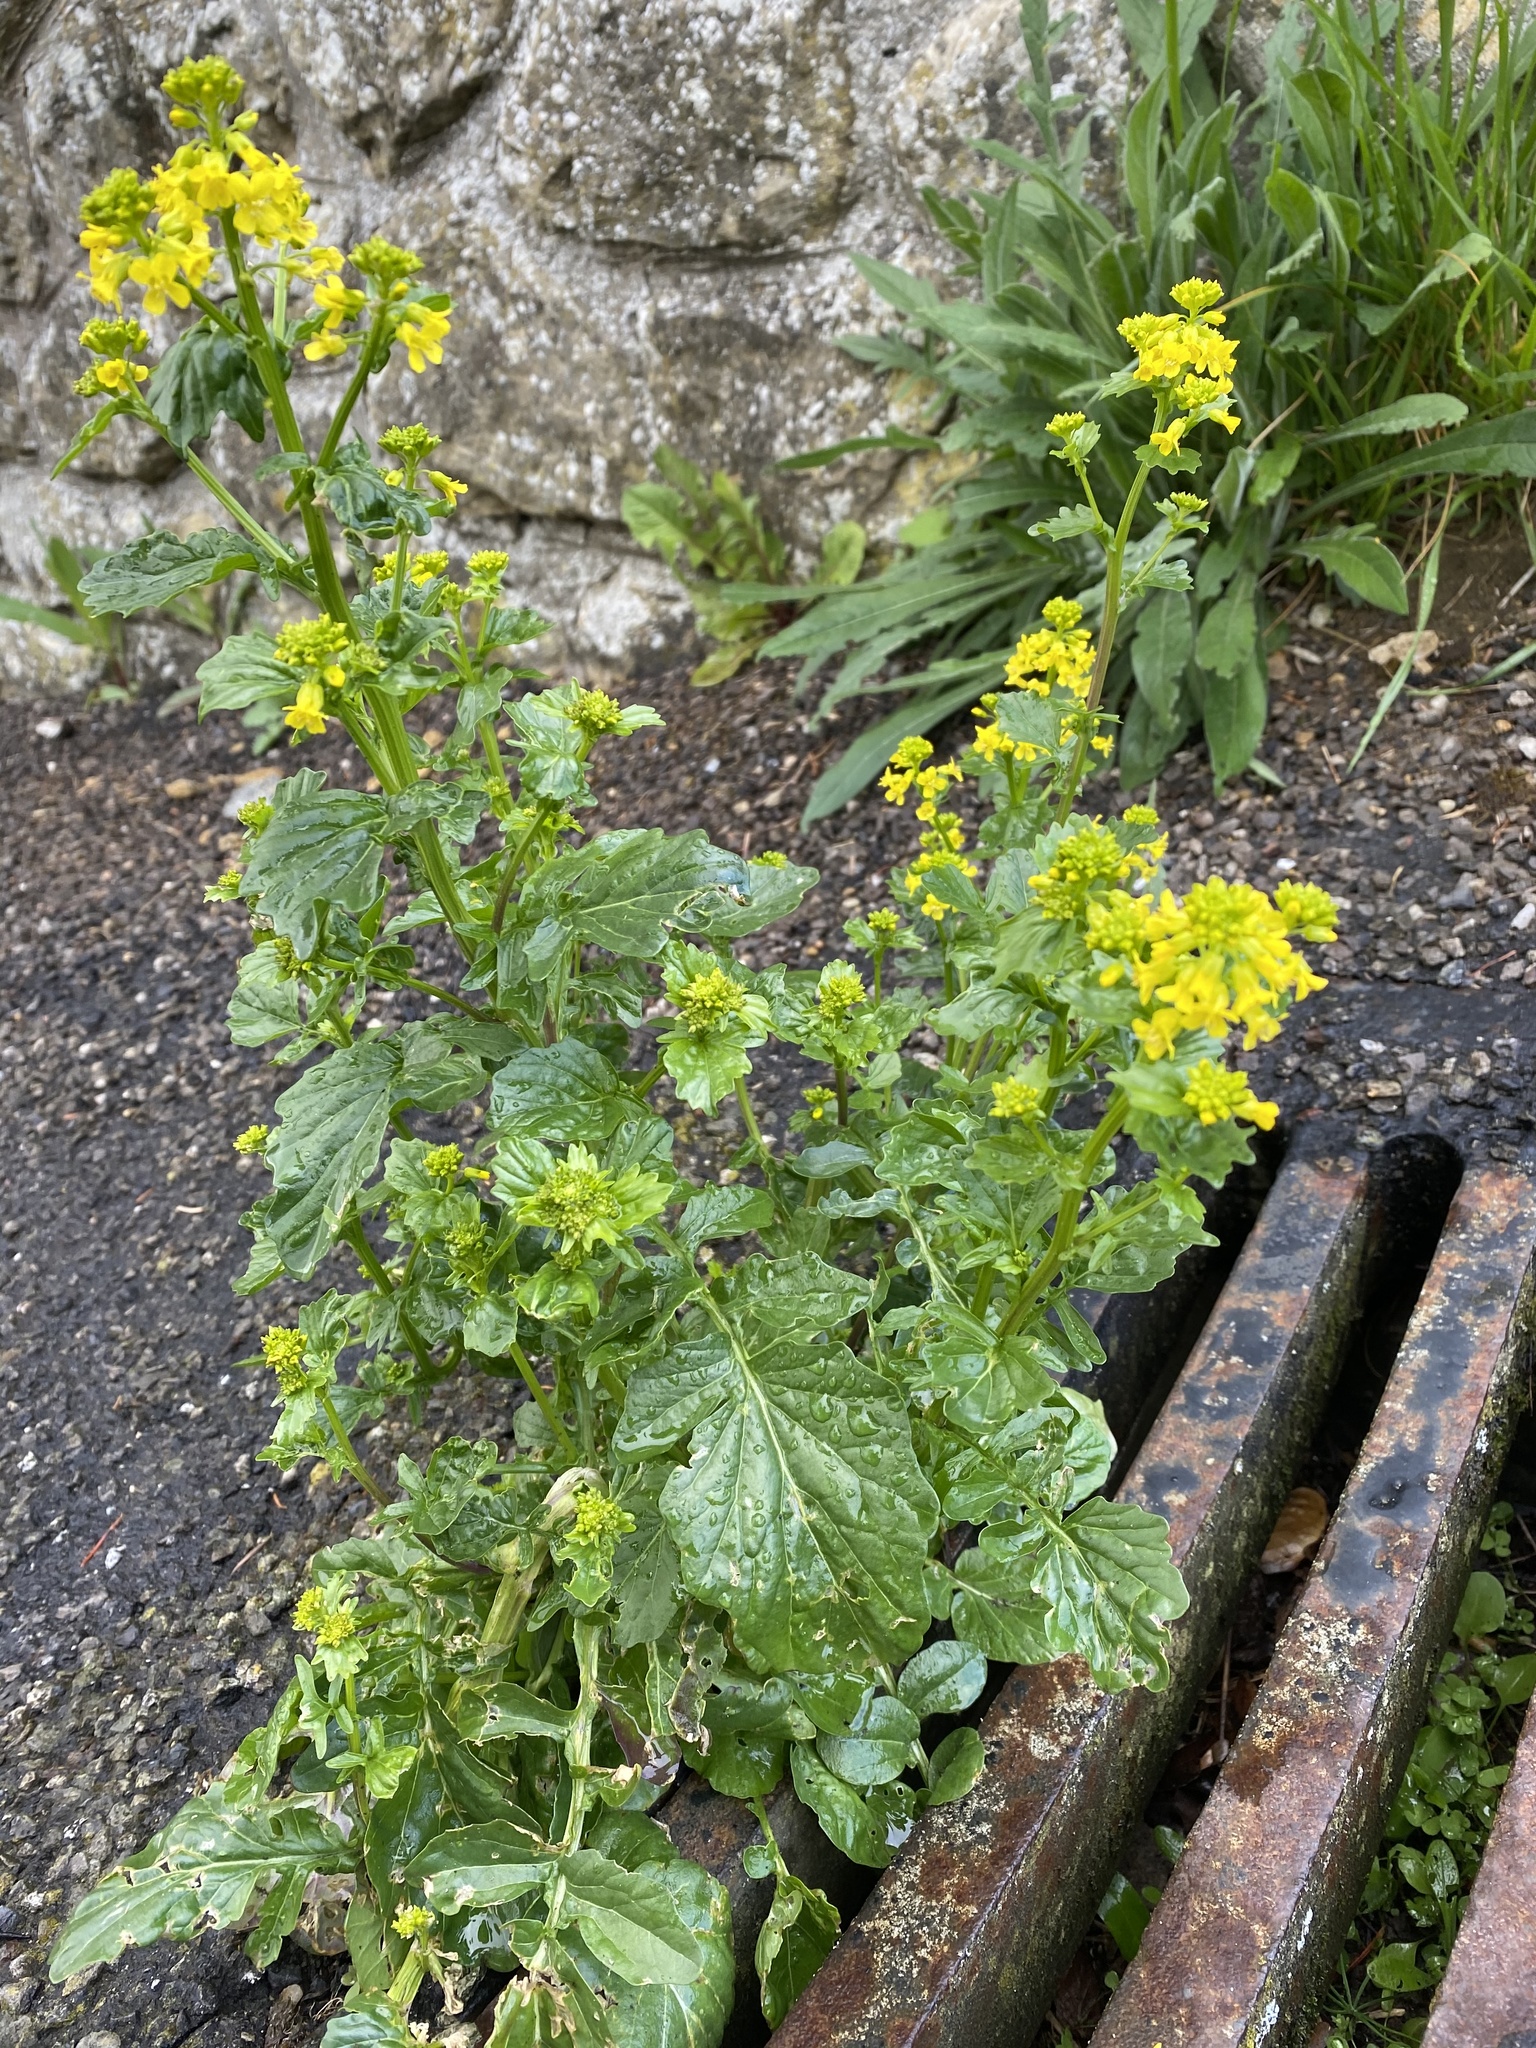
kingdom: Plantae
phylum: Tracheophyta
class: Magnoliopsida
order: Brassicales
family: Brassicaceae
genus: Barbarea
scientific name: Barbarea vulgaris
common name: Cressy-greens
